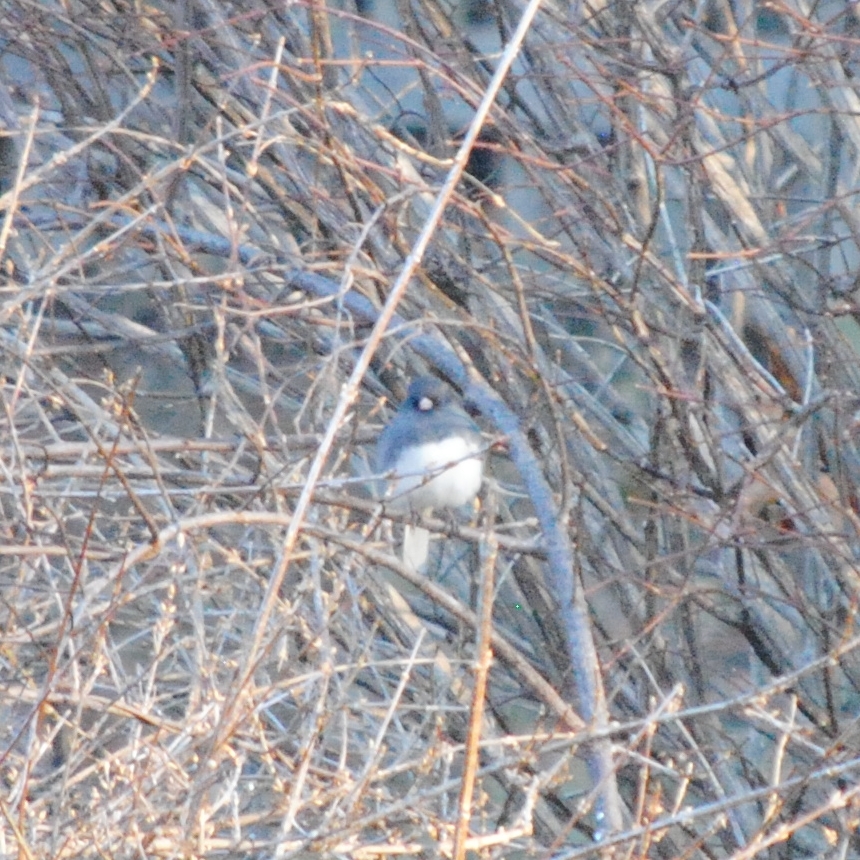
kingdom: Animalia
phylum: Chordata
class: Aves
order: Passeriformes
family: Passerellidae
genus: Junco
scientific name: Junco hyemalis
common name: Dark-eyed junco
